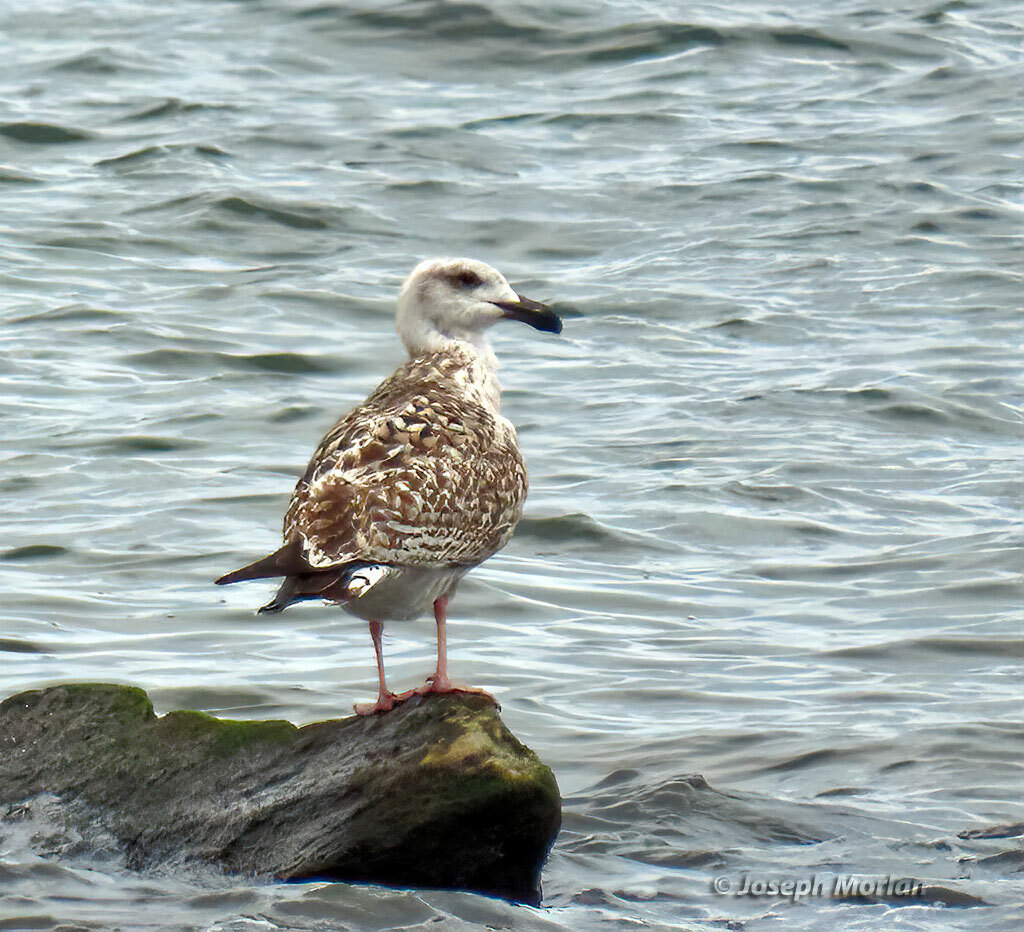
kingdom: Animalia
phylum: Chordata
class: Aves
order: Charadriiformes
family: Laridae
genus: Larus
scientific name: Larus marinus
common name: Great black-backed gull
